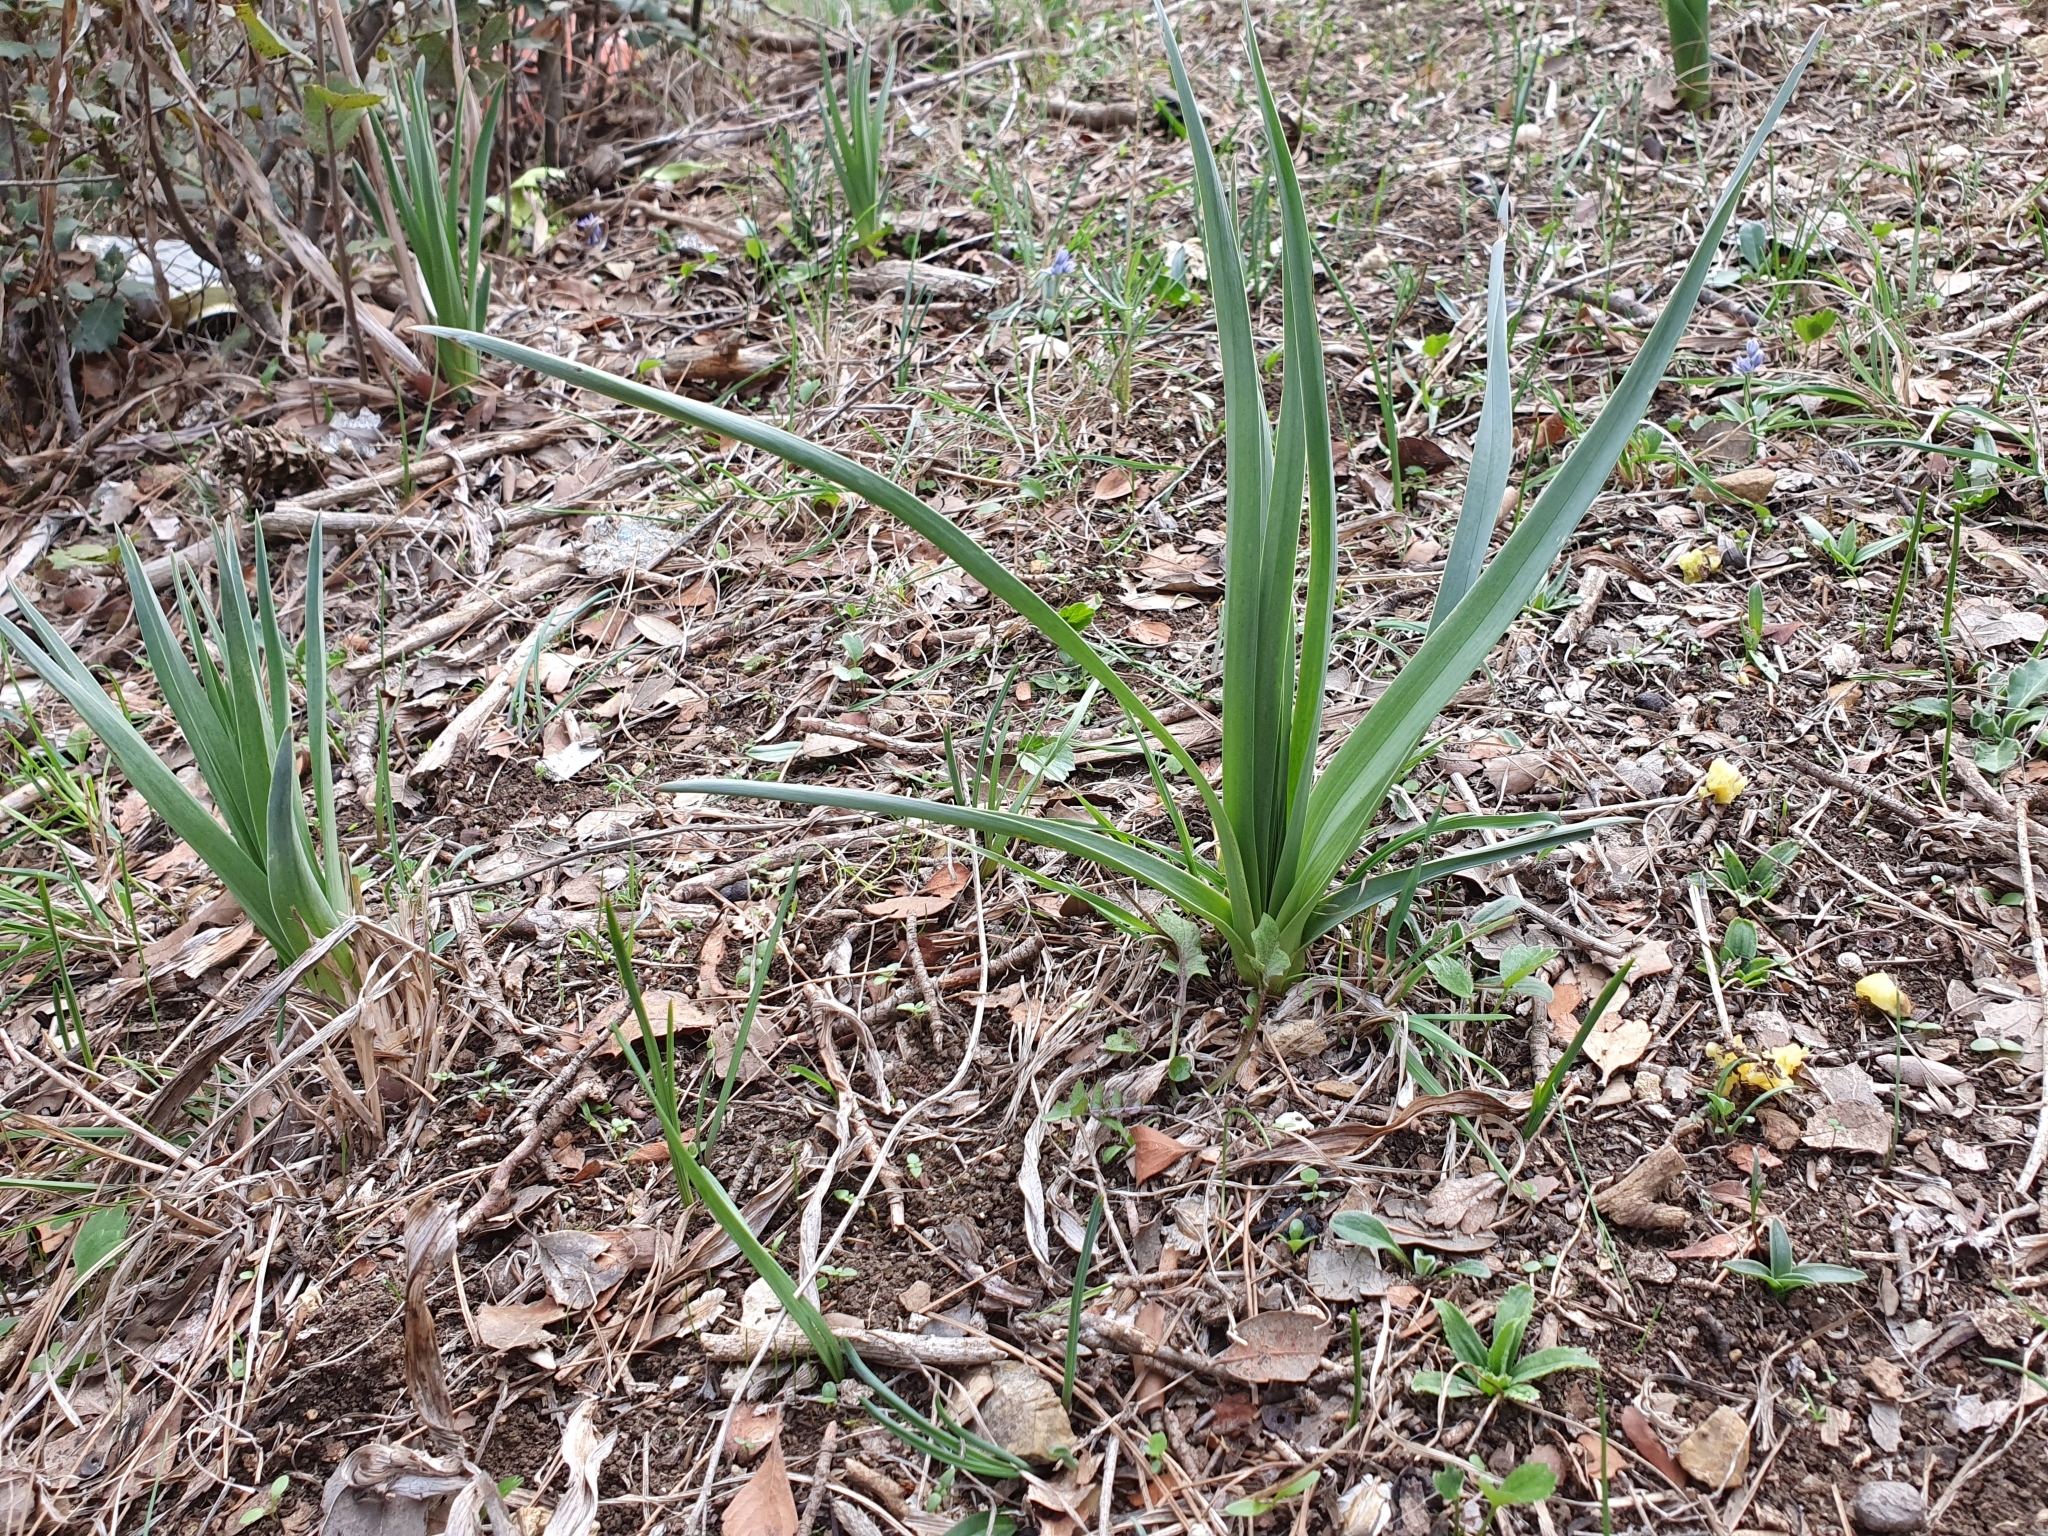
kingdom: Plantae
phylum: Tracheophyta
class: Liliopsida
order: Asparagales
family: Asphodelaceae
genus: Asphodelus
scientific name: Asphodelus ramosus
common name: Silverrod
